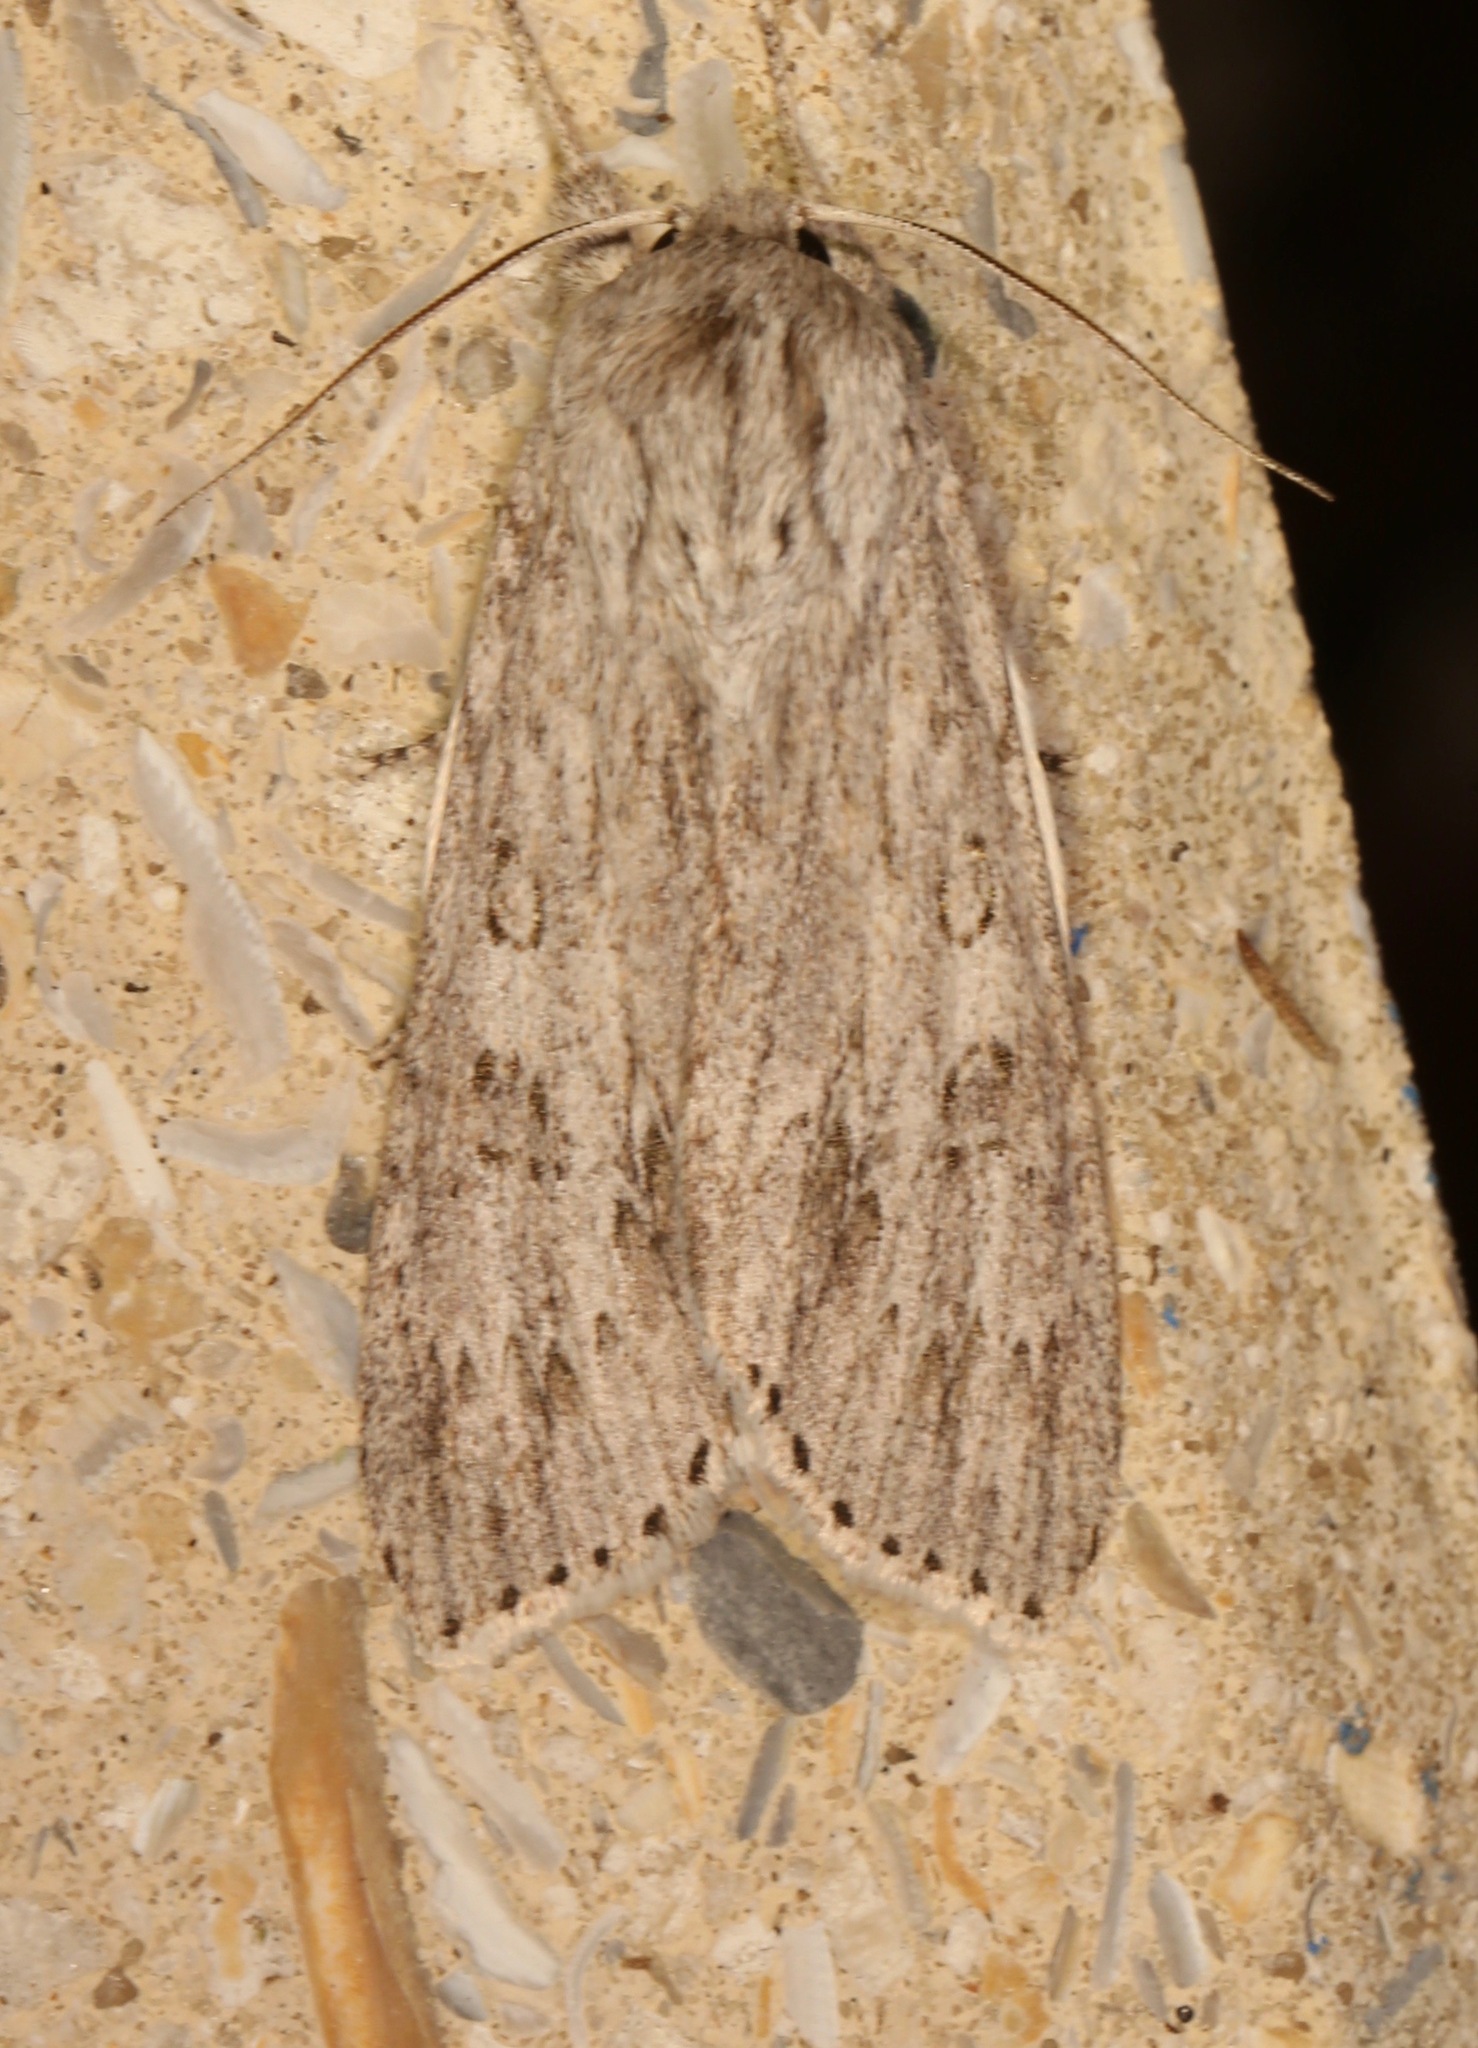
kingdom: Animalia
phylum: Arthropoda
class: Insecta
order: Lepidoptera
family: Noctuidae
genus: Acronicta
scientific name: Acronicta oblinita
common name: Smeared dagger
